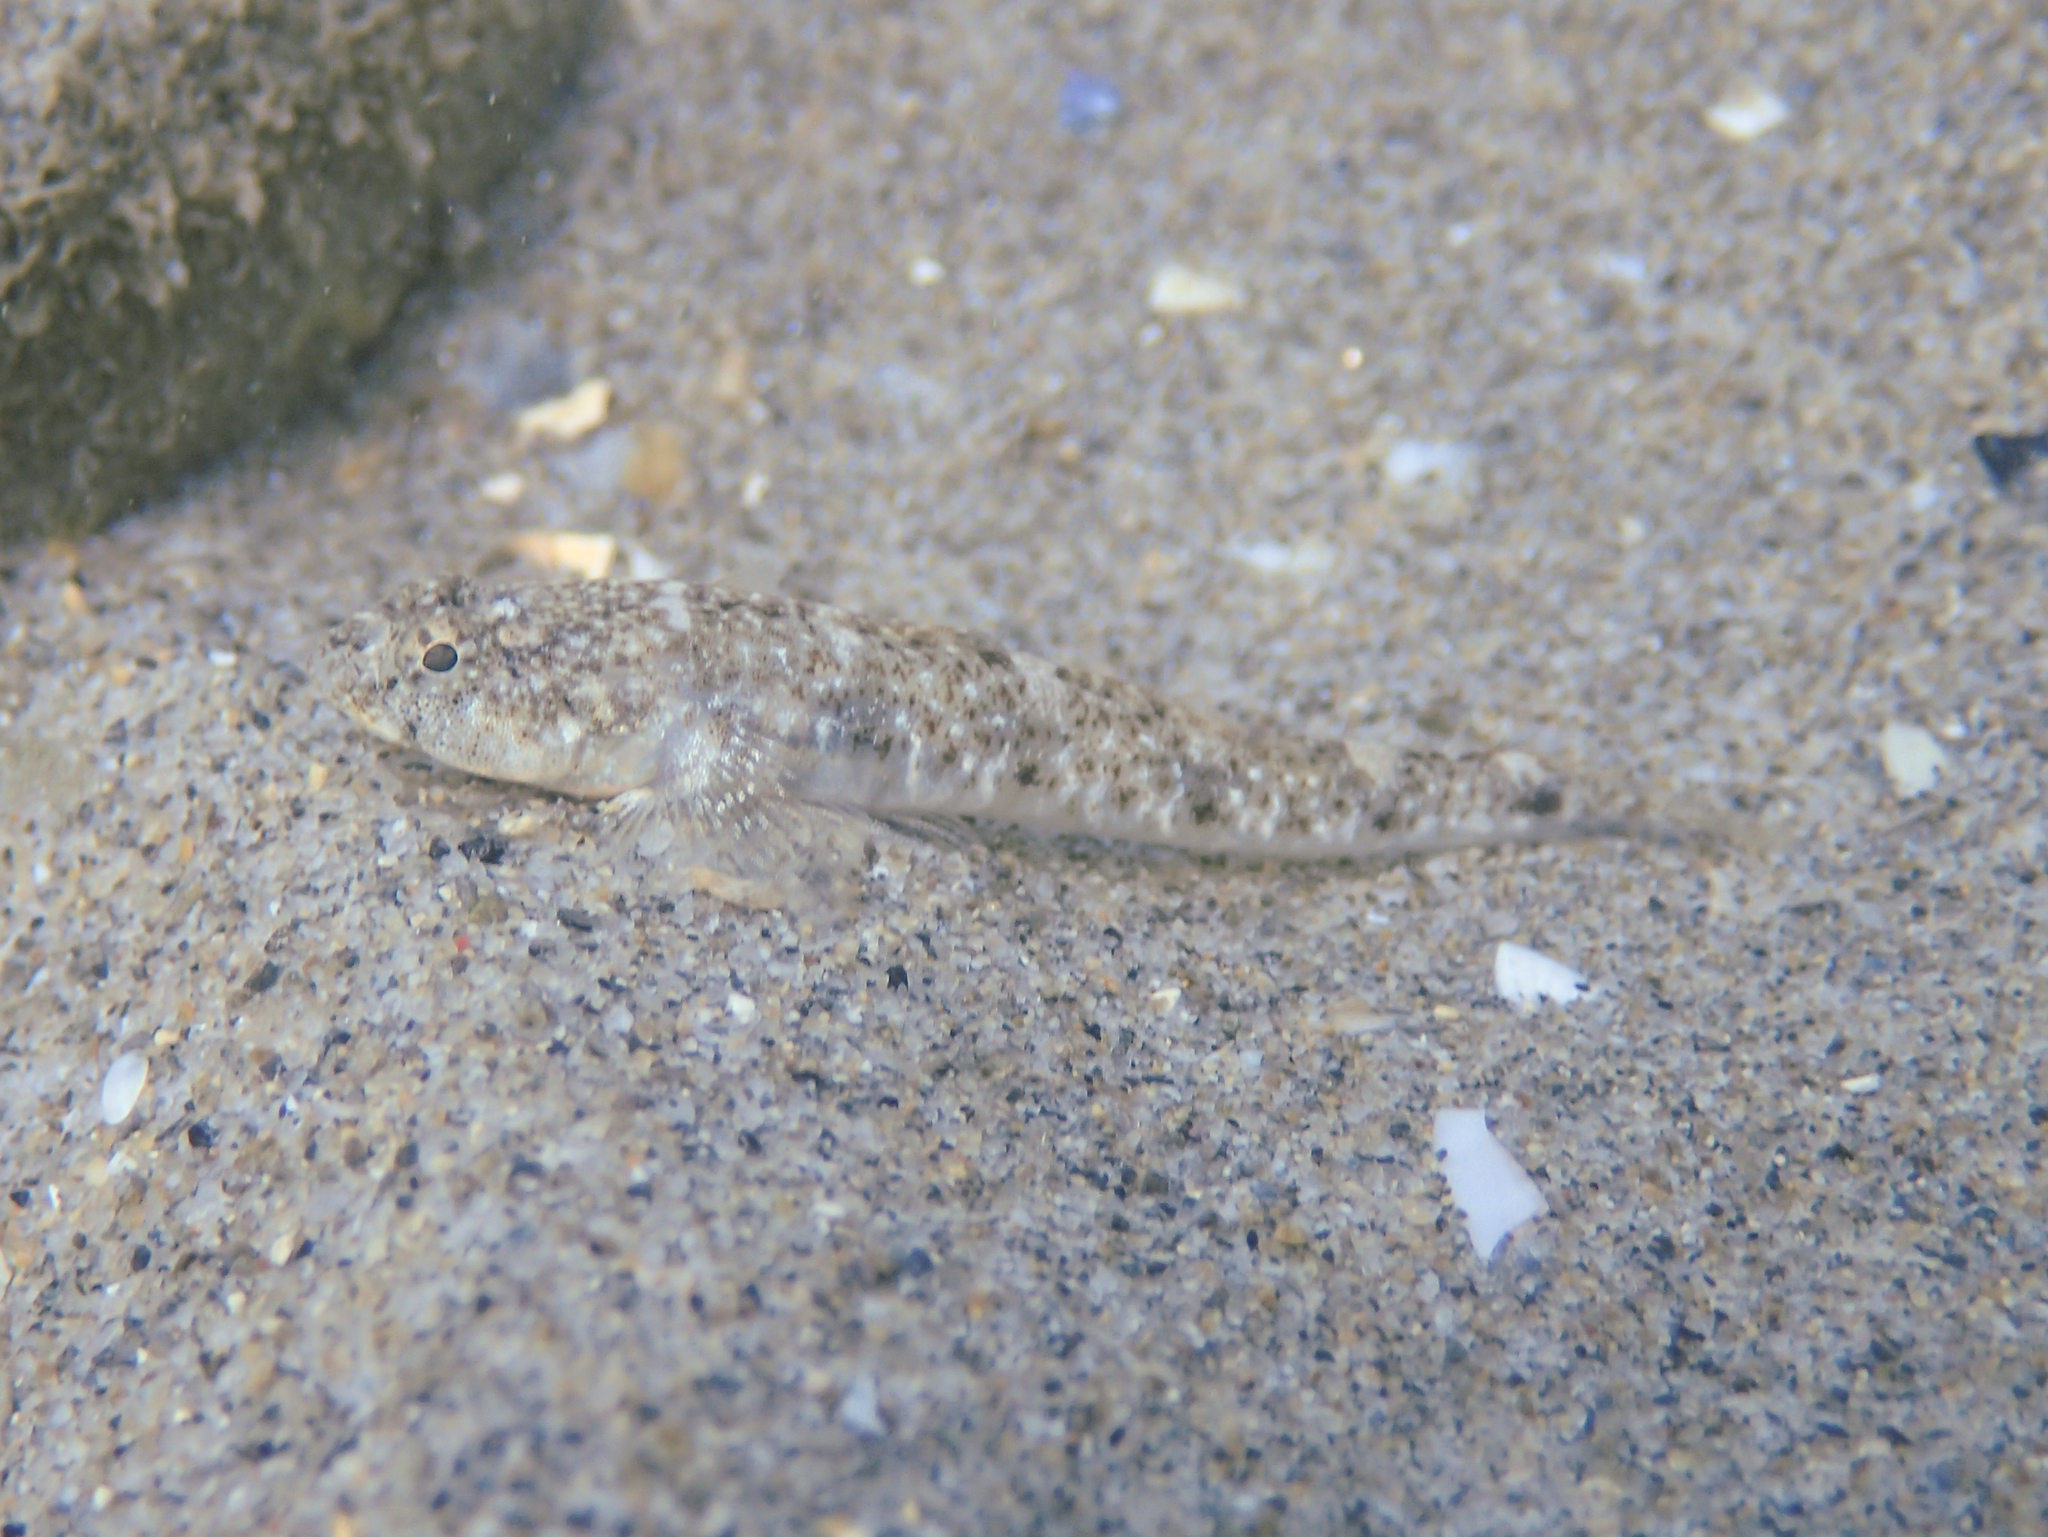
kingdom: Animalia
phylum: Chordata
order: Perciformes
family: Gobiidae
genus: Pomatoschistus
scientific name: Pomatoschistus marmoratus
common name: Marbled goby
